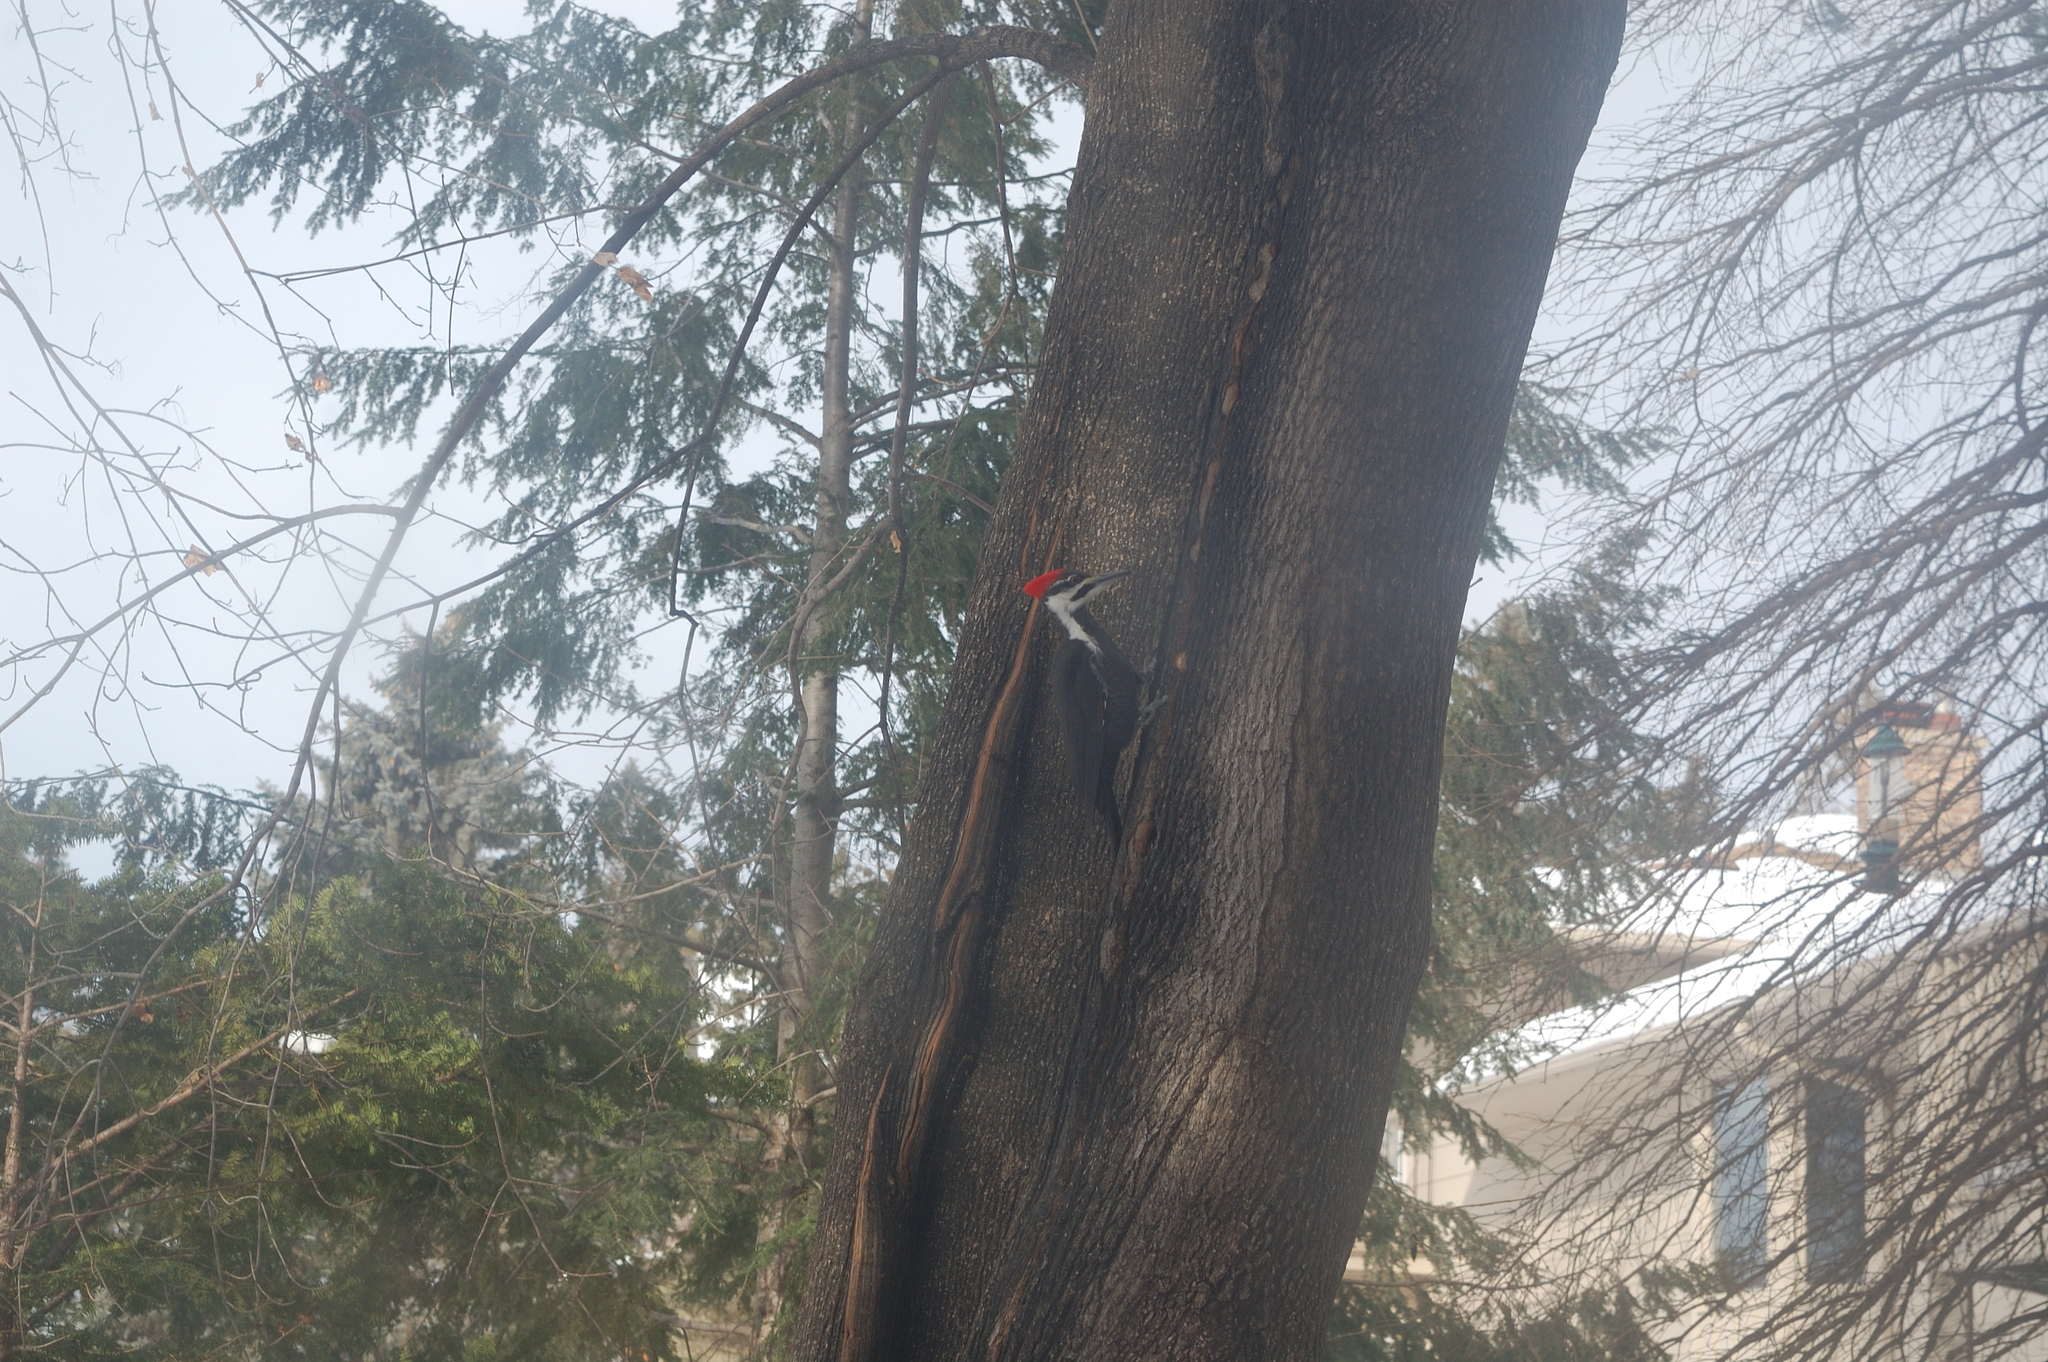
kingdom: Animalia
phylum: Chordata
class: Aves
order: Piciformes
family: Picidae
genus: Dryocopus
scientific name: Dryocopus pileatus
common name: Pileated woodpecker
